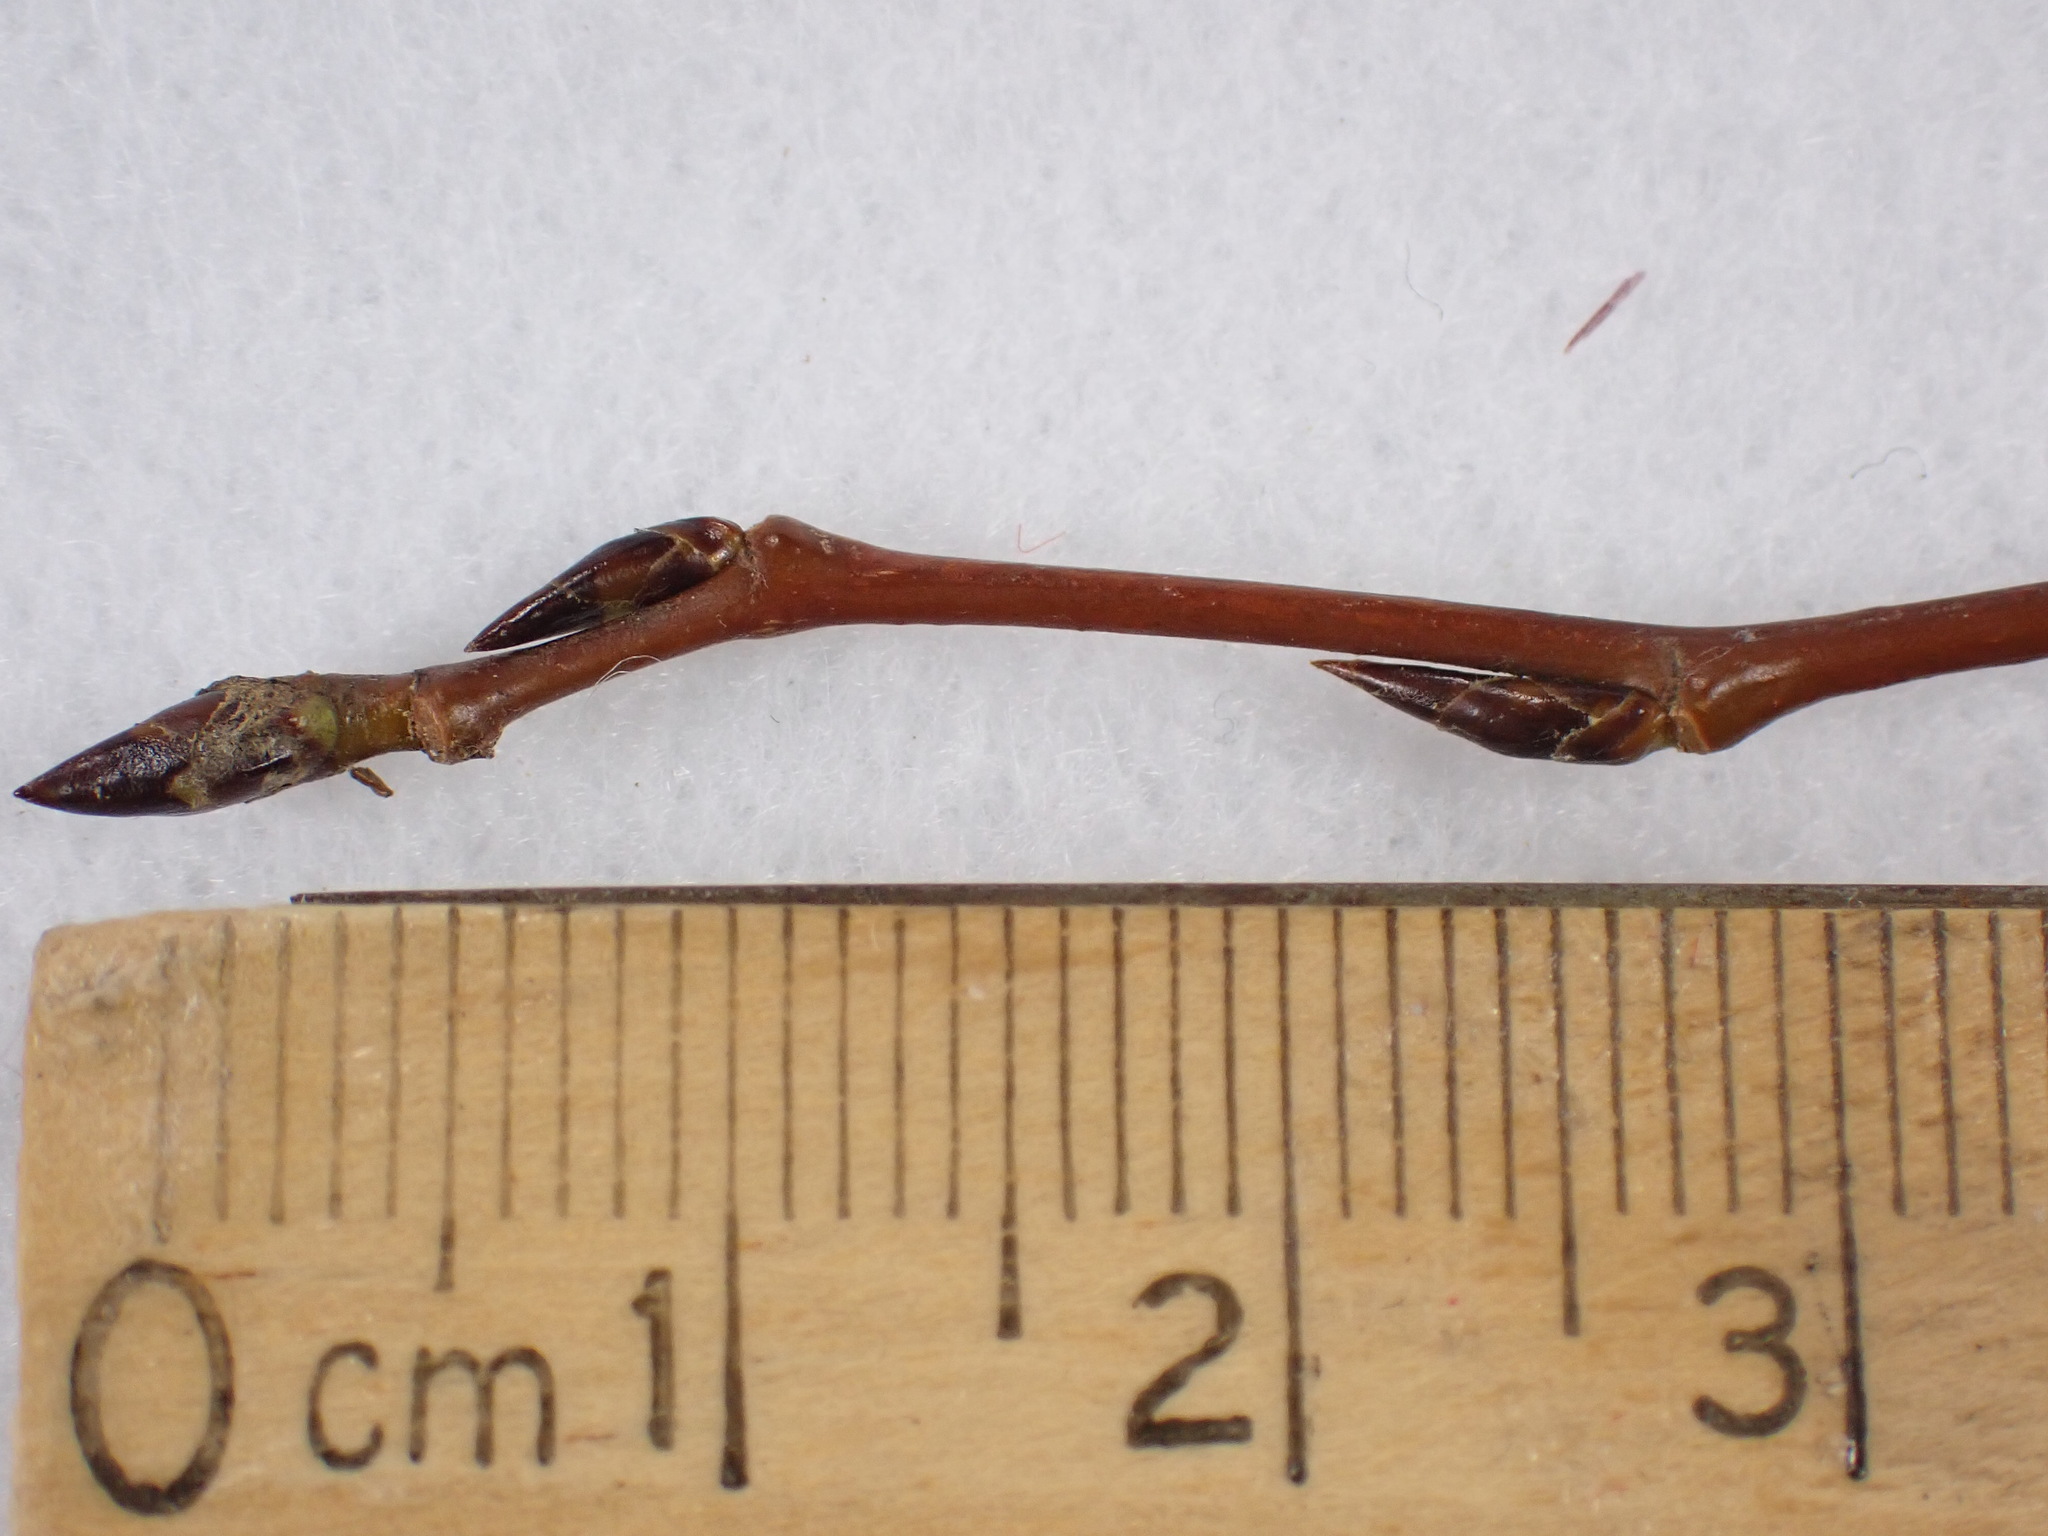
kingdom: Plantae
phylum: Tracheophyta
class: Magnoliopsida
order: Malpighiales
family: Salicaceae
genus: Populus
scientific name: Populus tremuloides
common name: Quaking aspen
